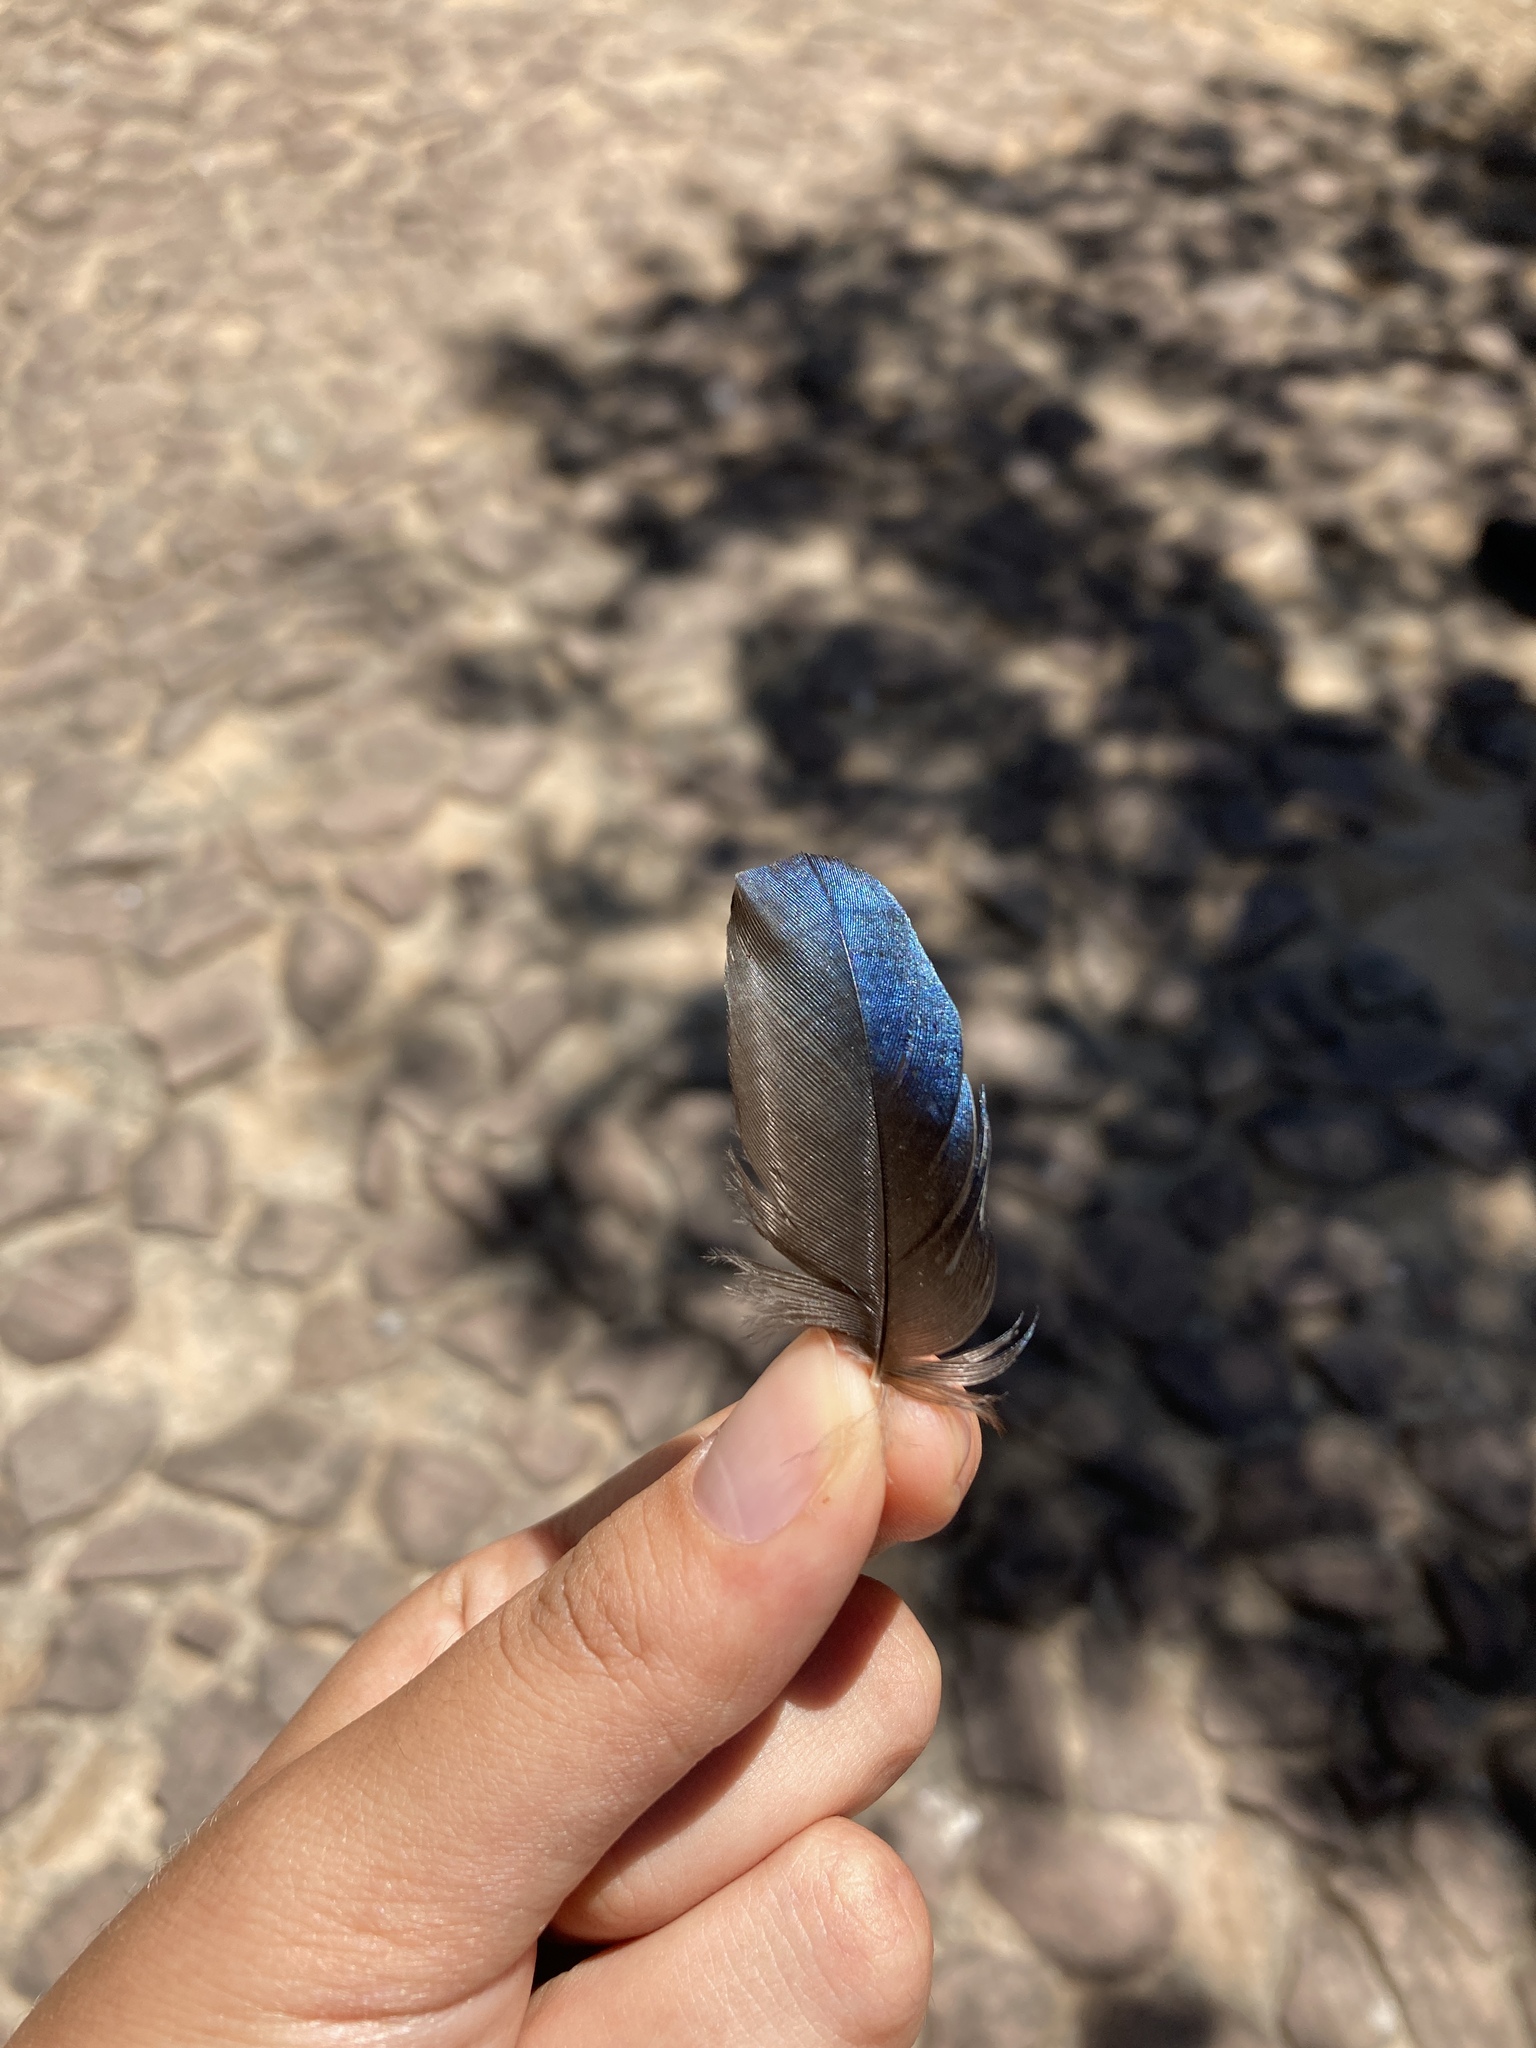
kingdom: Animalia
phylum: Chordata
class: Aves
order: Passeriformes
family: Corvidae
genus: Pica
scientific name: Pica pica
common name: Eurasian magpie
